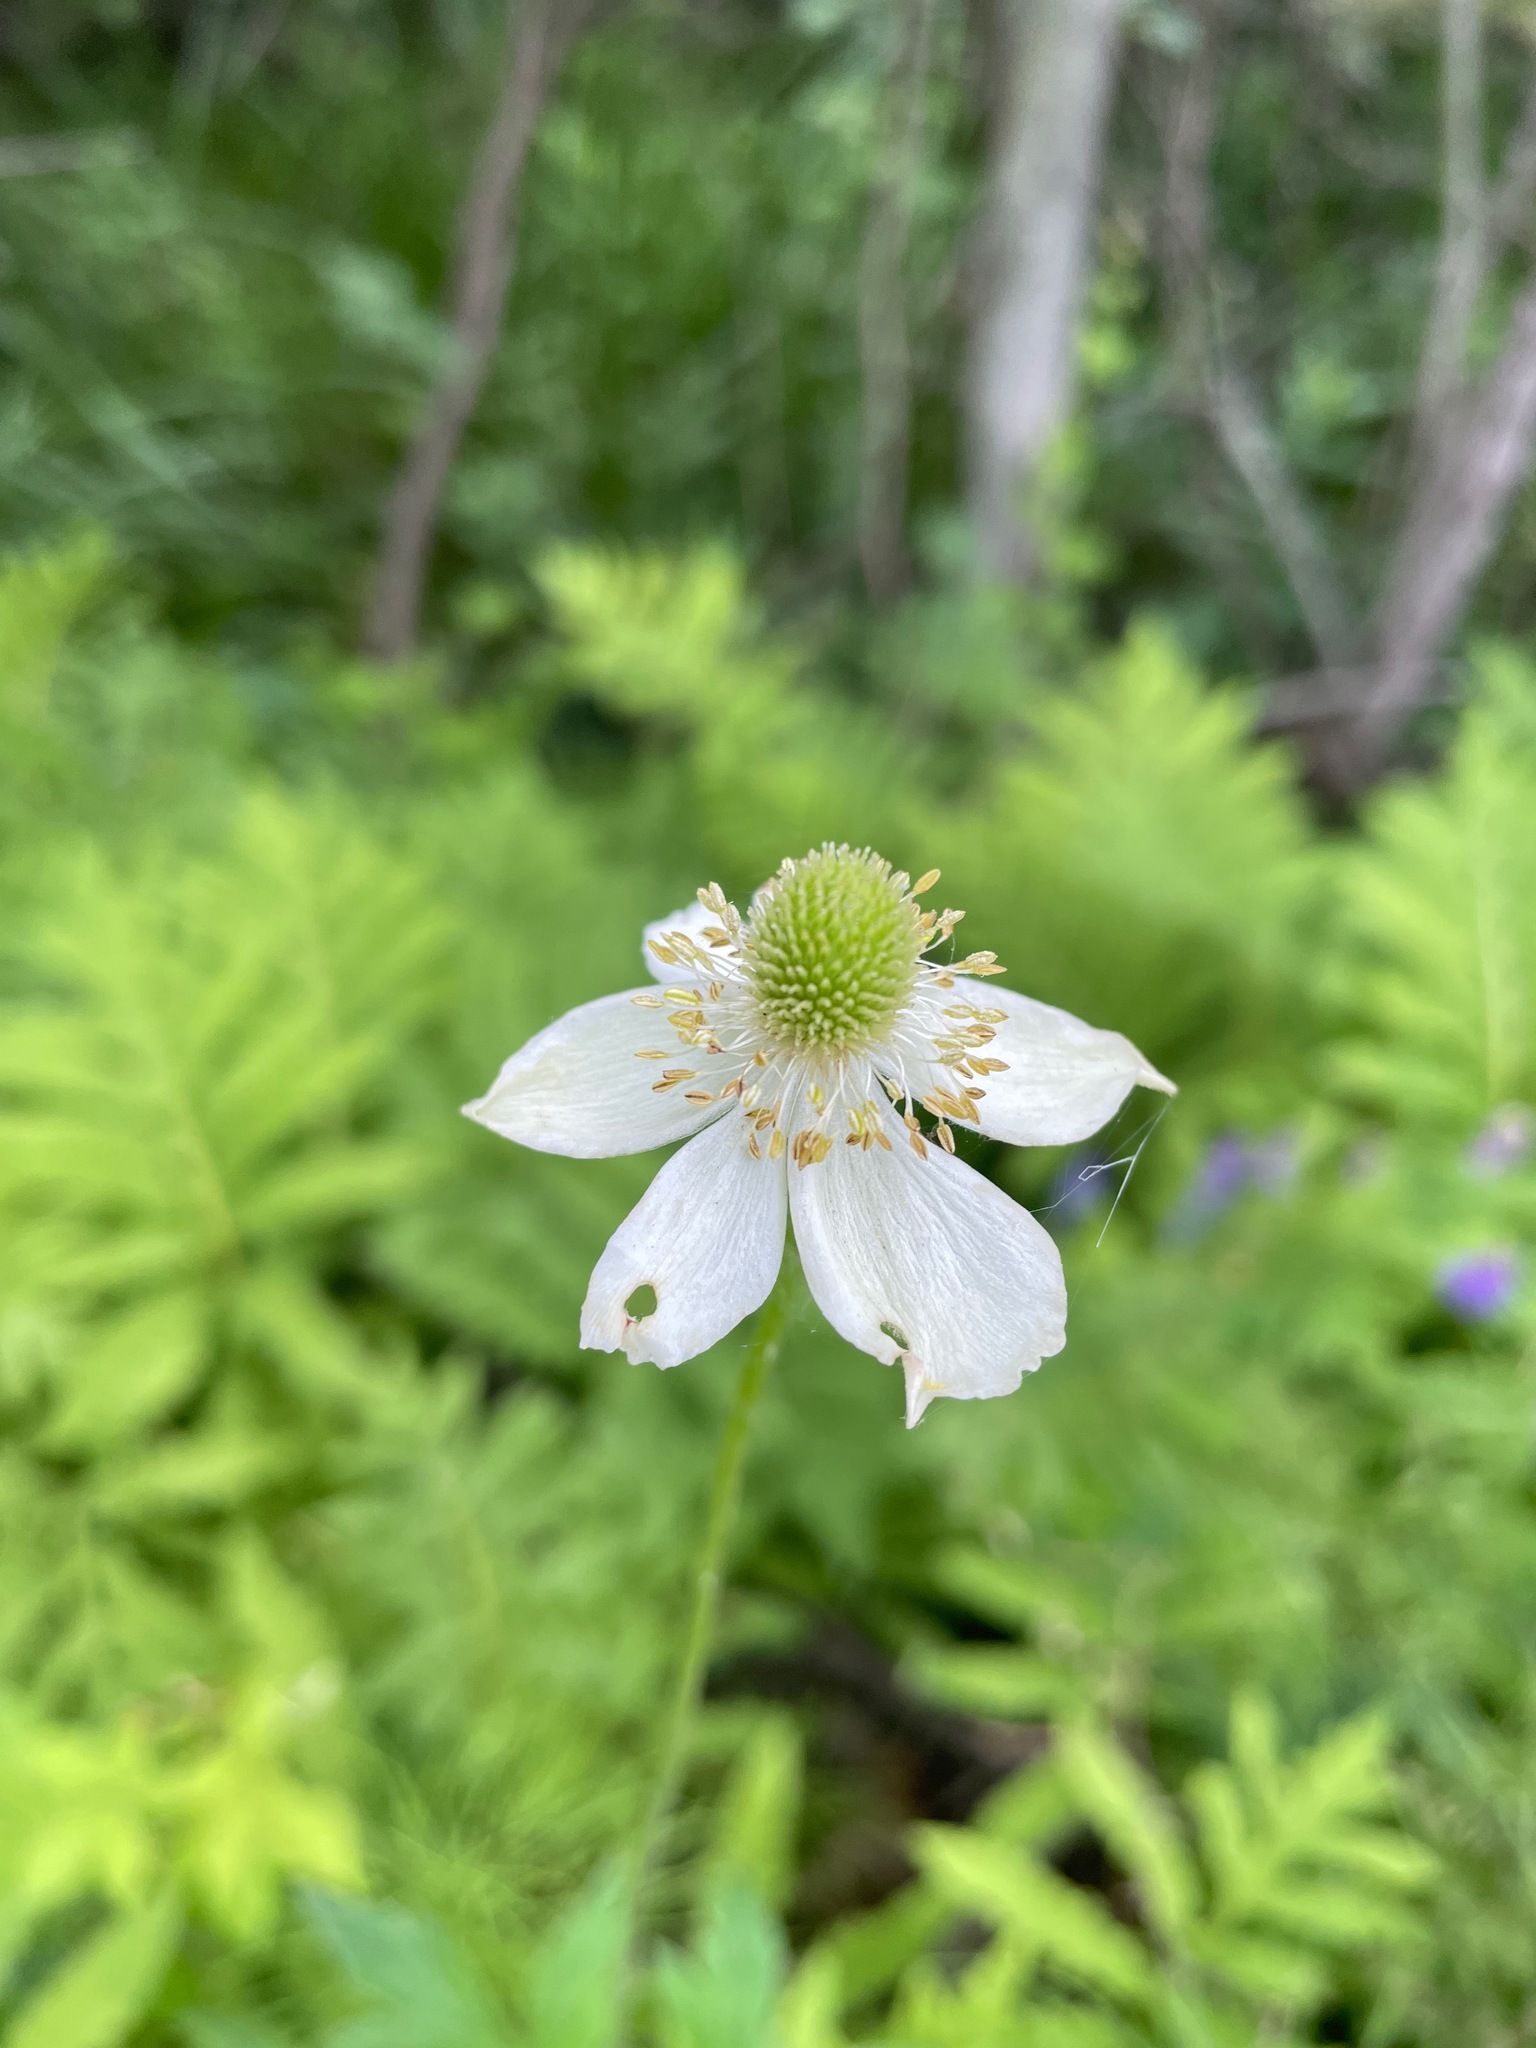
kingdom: Plantae
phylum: Tracheophyta
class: Magnoliopsida
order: Ranunculales
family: Ranunculaceae
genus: Anemone
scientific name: Anemone virginiana
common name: Tall anemone
